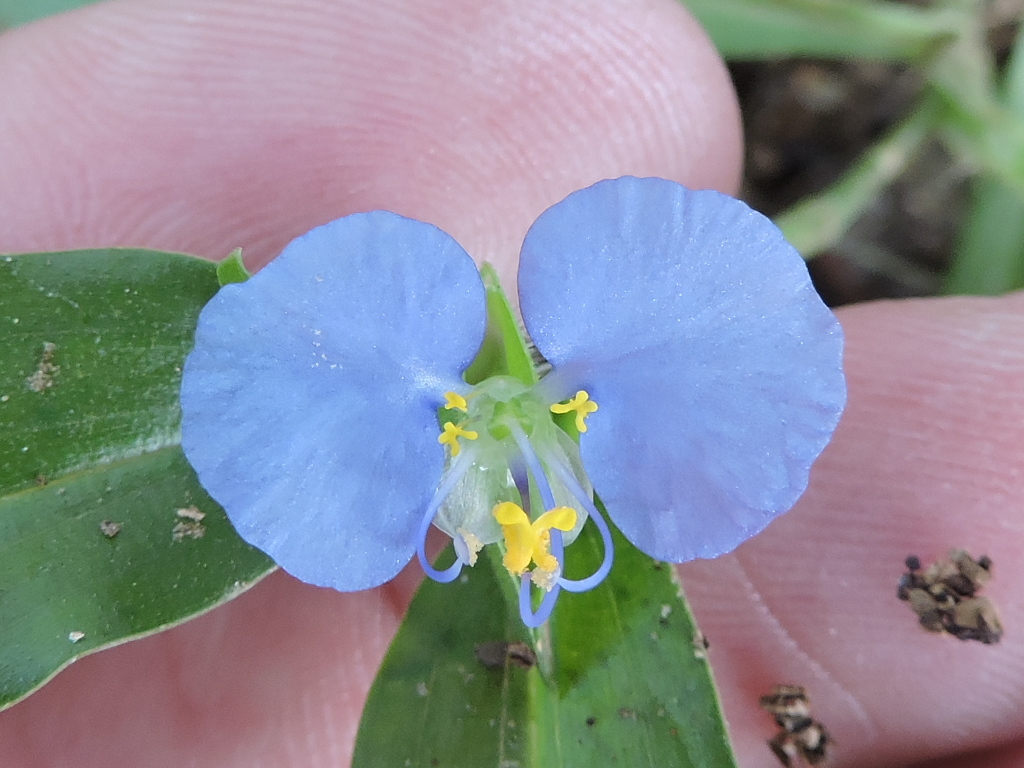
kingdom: Plantae
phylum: Tracheophyta
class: Liliopsida
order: Commelinales
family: Commelinaceae
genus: Commelina
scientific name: Commelina erecta
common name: Blousel blommetjie
